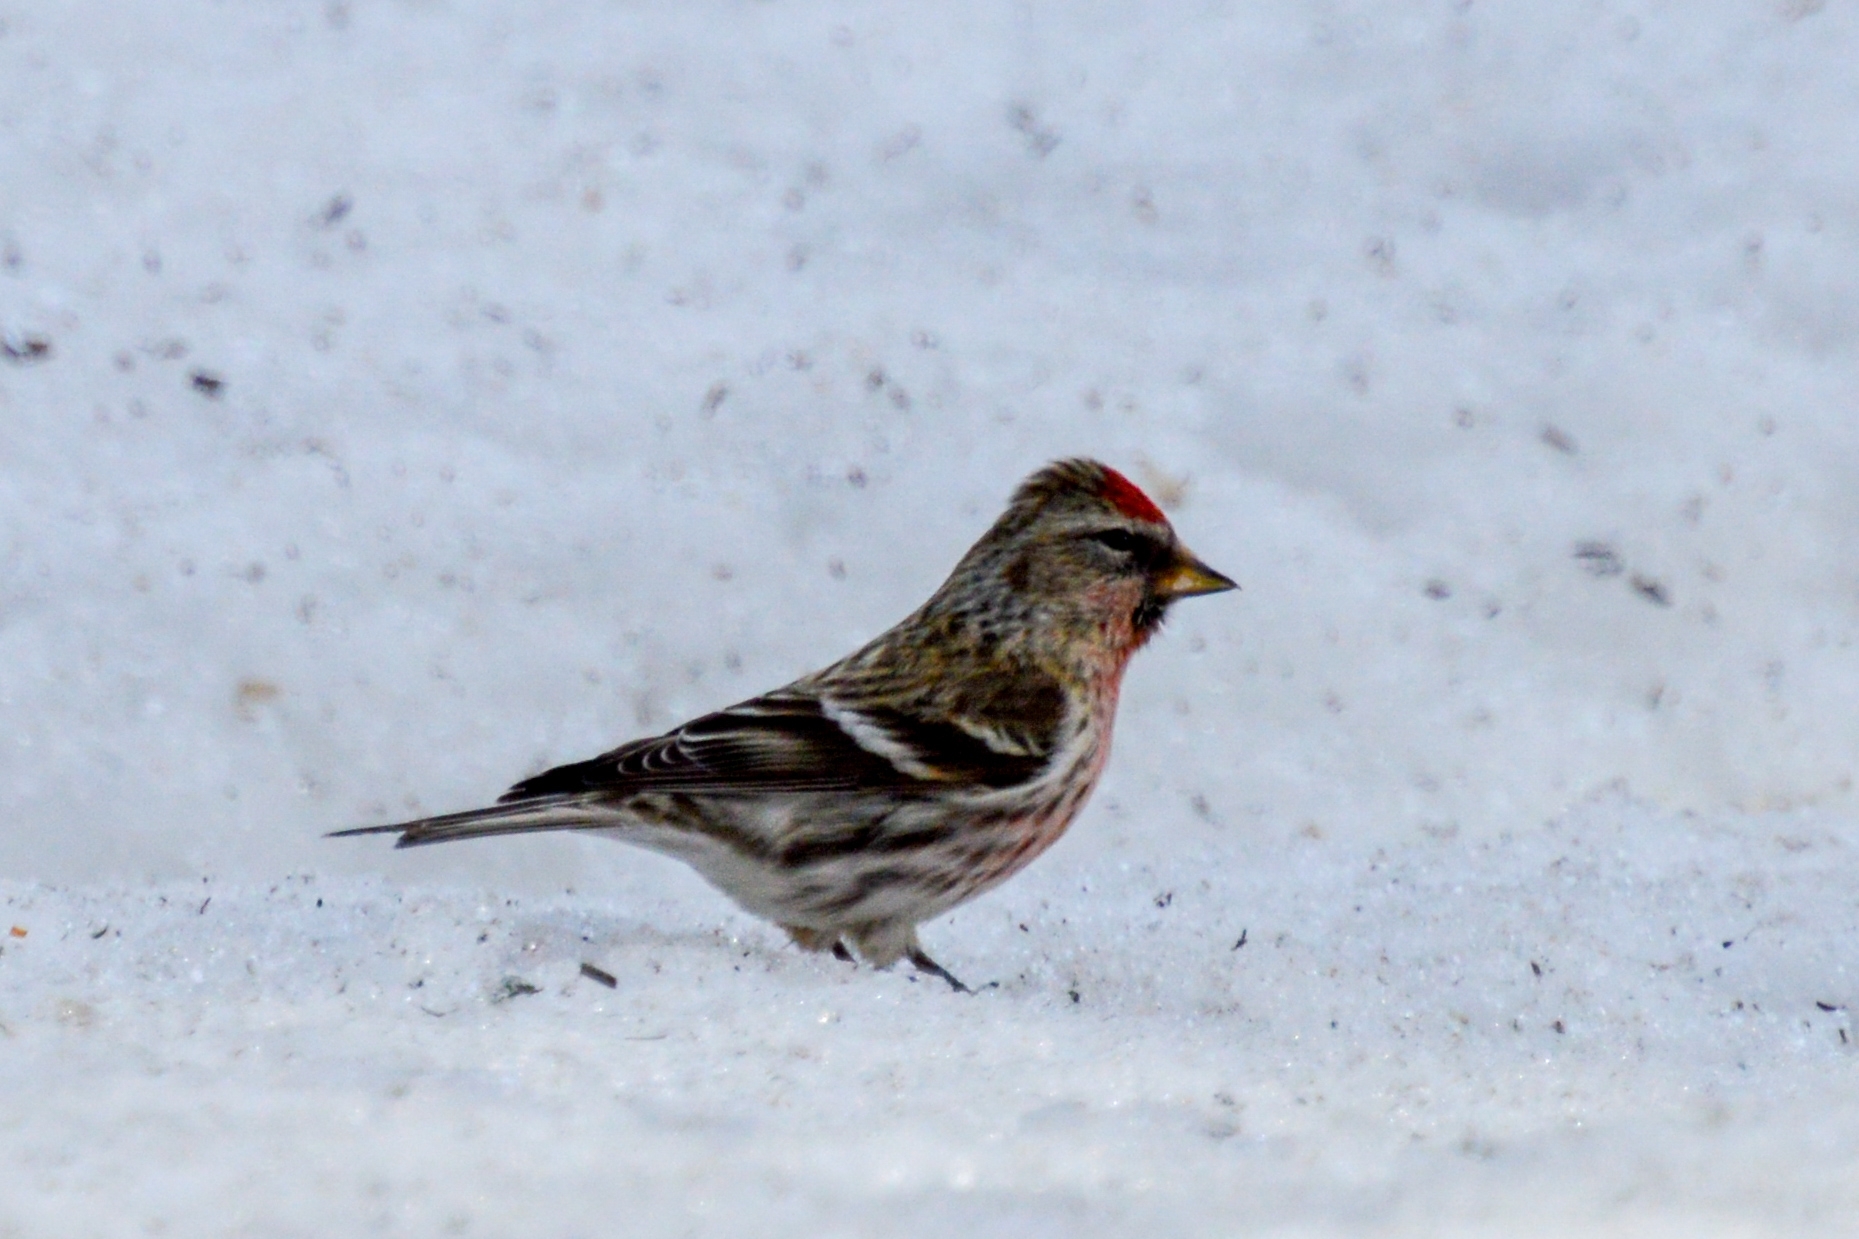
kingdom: Animalia
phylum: Chordata
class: Aves
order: Passeriformes
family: Fringillidae
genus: Acanthis
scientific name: Acanthis flammea
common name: Common redpoll
